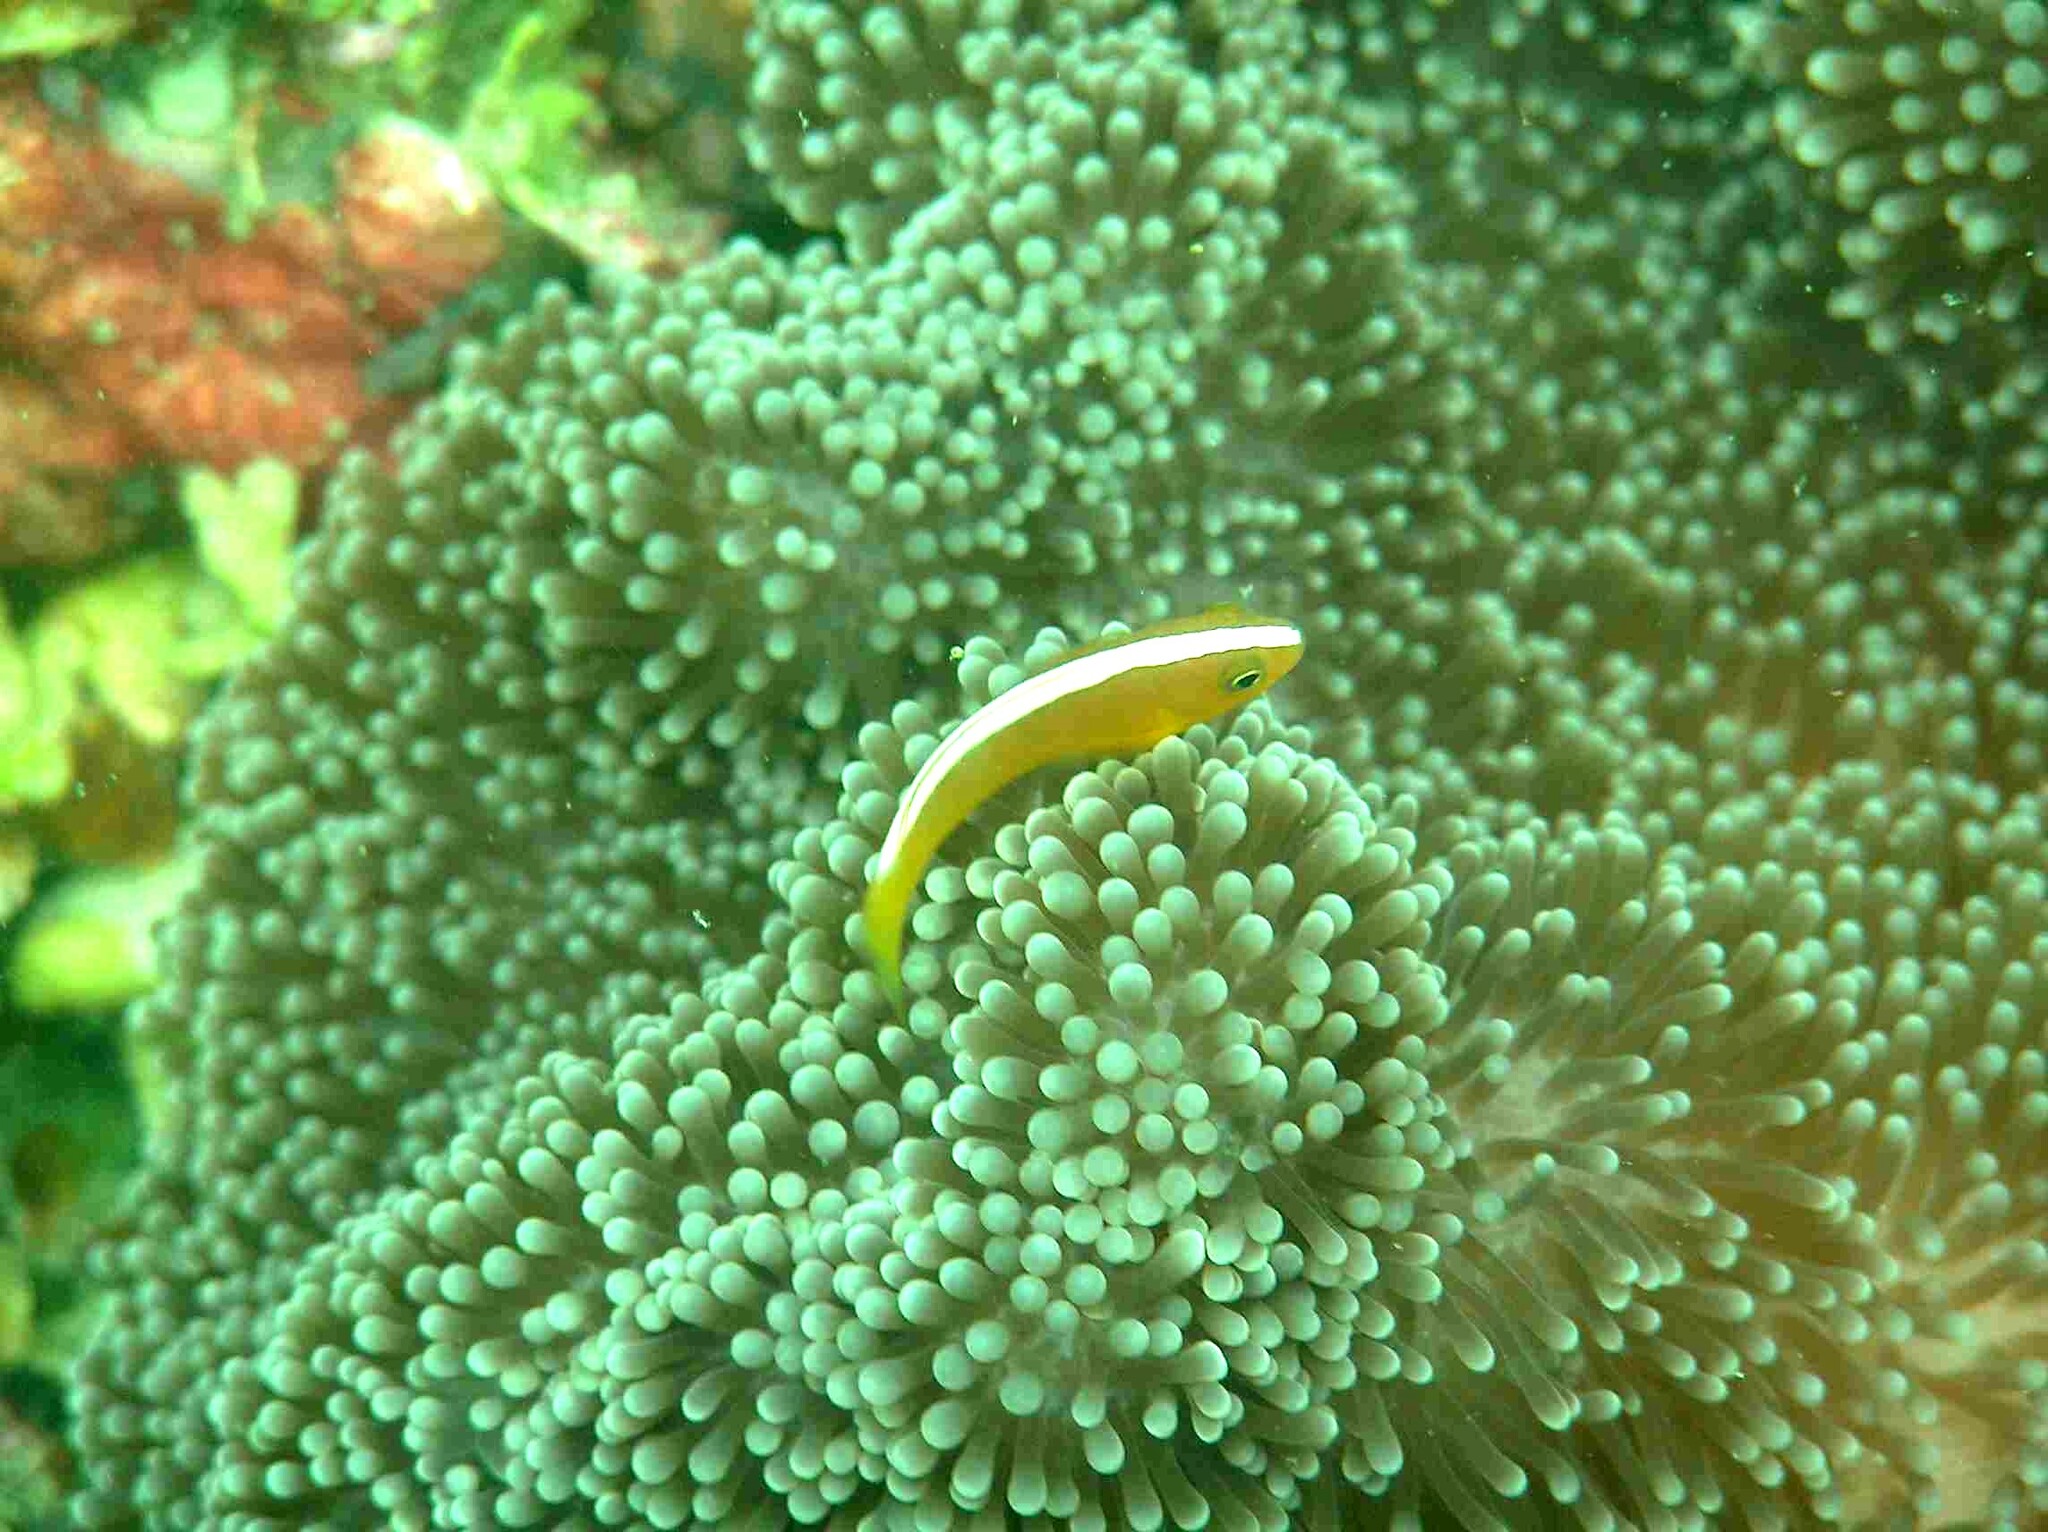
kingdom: Animalia
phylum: Chordata
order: Perciformes
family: Pomacentridae
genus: Amphiprion
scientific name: Amphiprion sandaracinos
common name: Orange anemonefish
